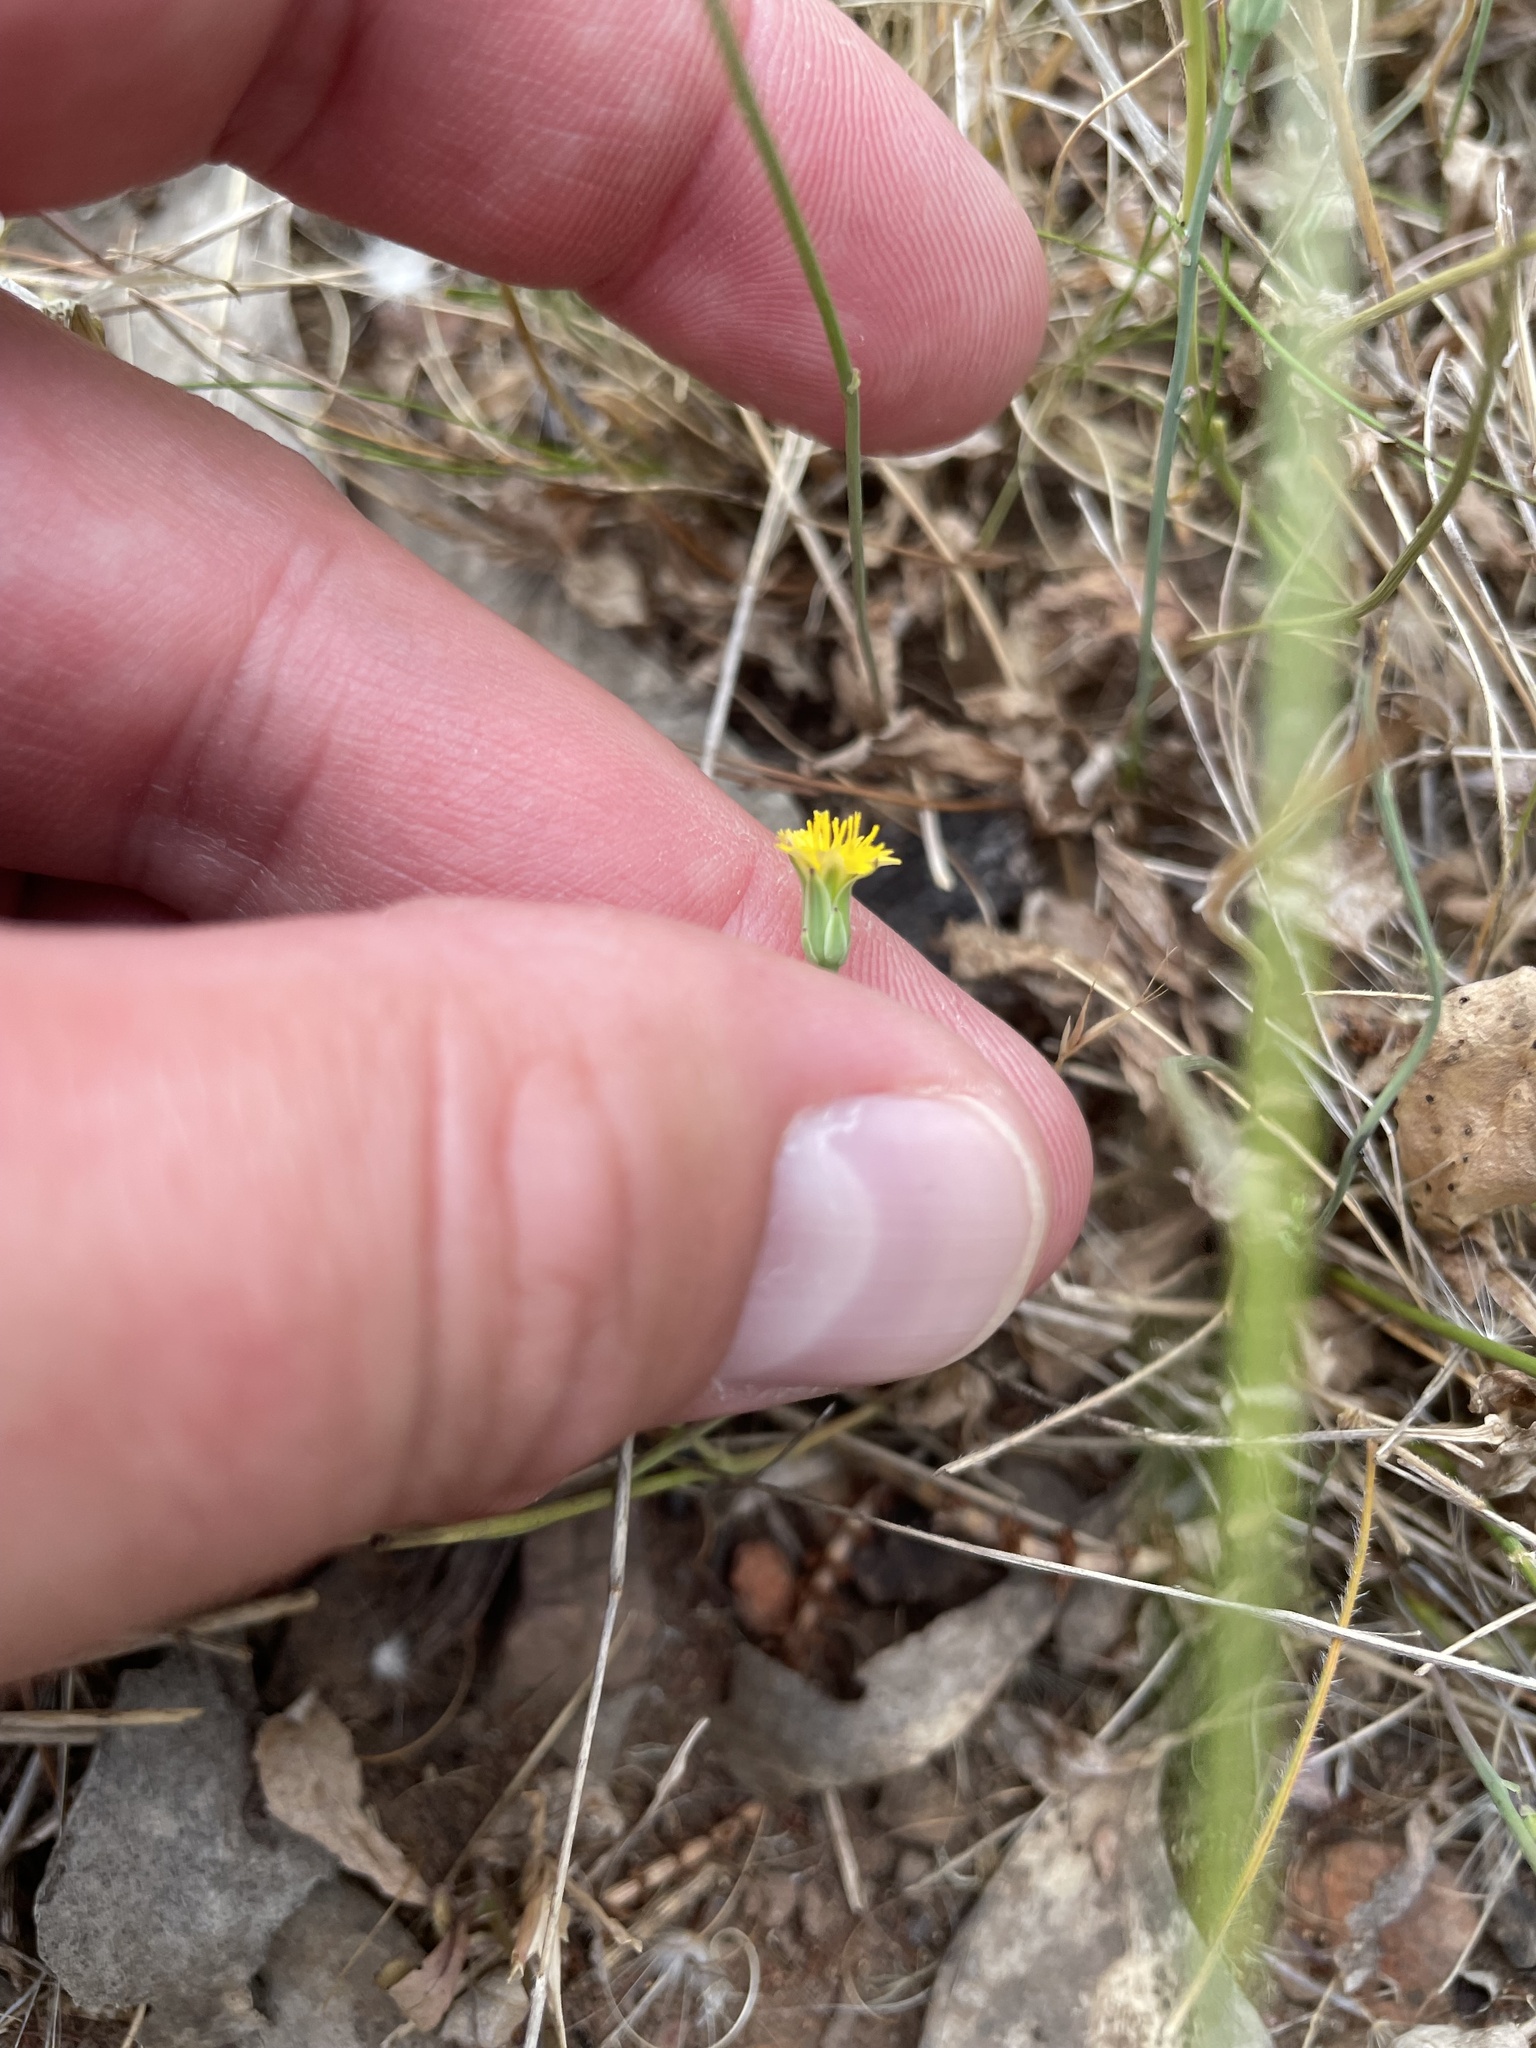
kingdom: Plantae
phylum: Tracheophyta
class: Magnoliopsida
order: Asterales
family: Asteraceae
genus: Hypochaeris
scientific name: Hypochaeris glabra
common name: Smooth catsear
